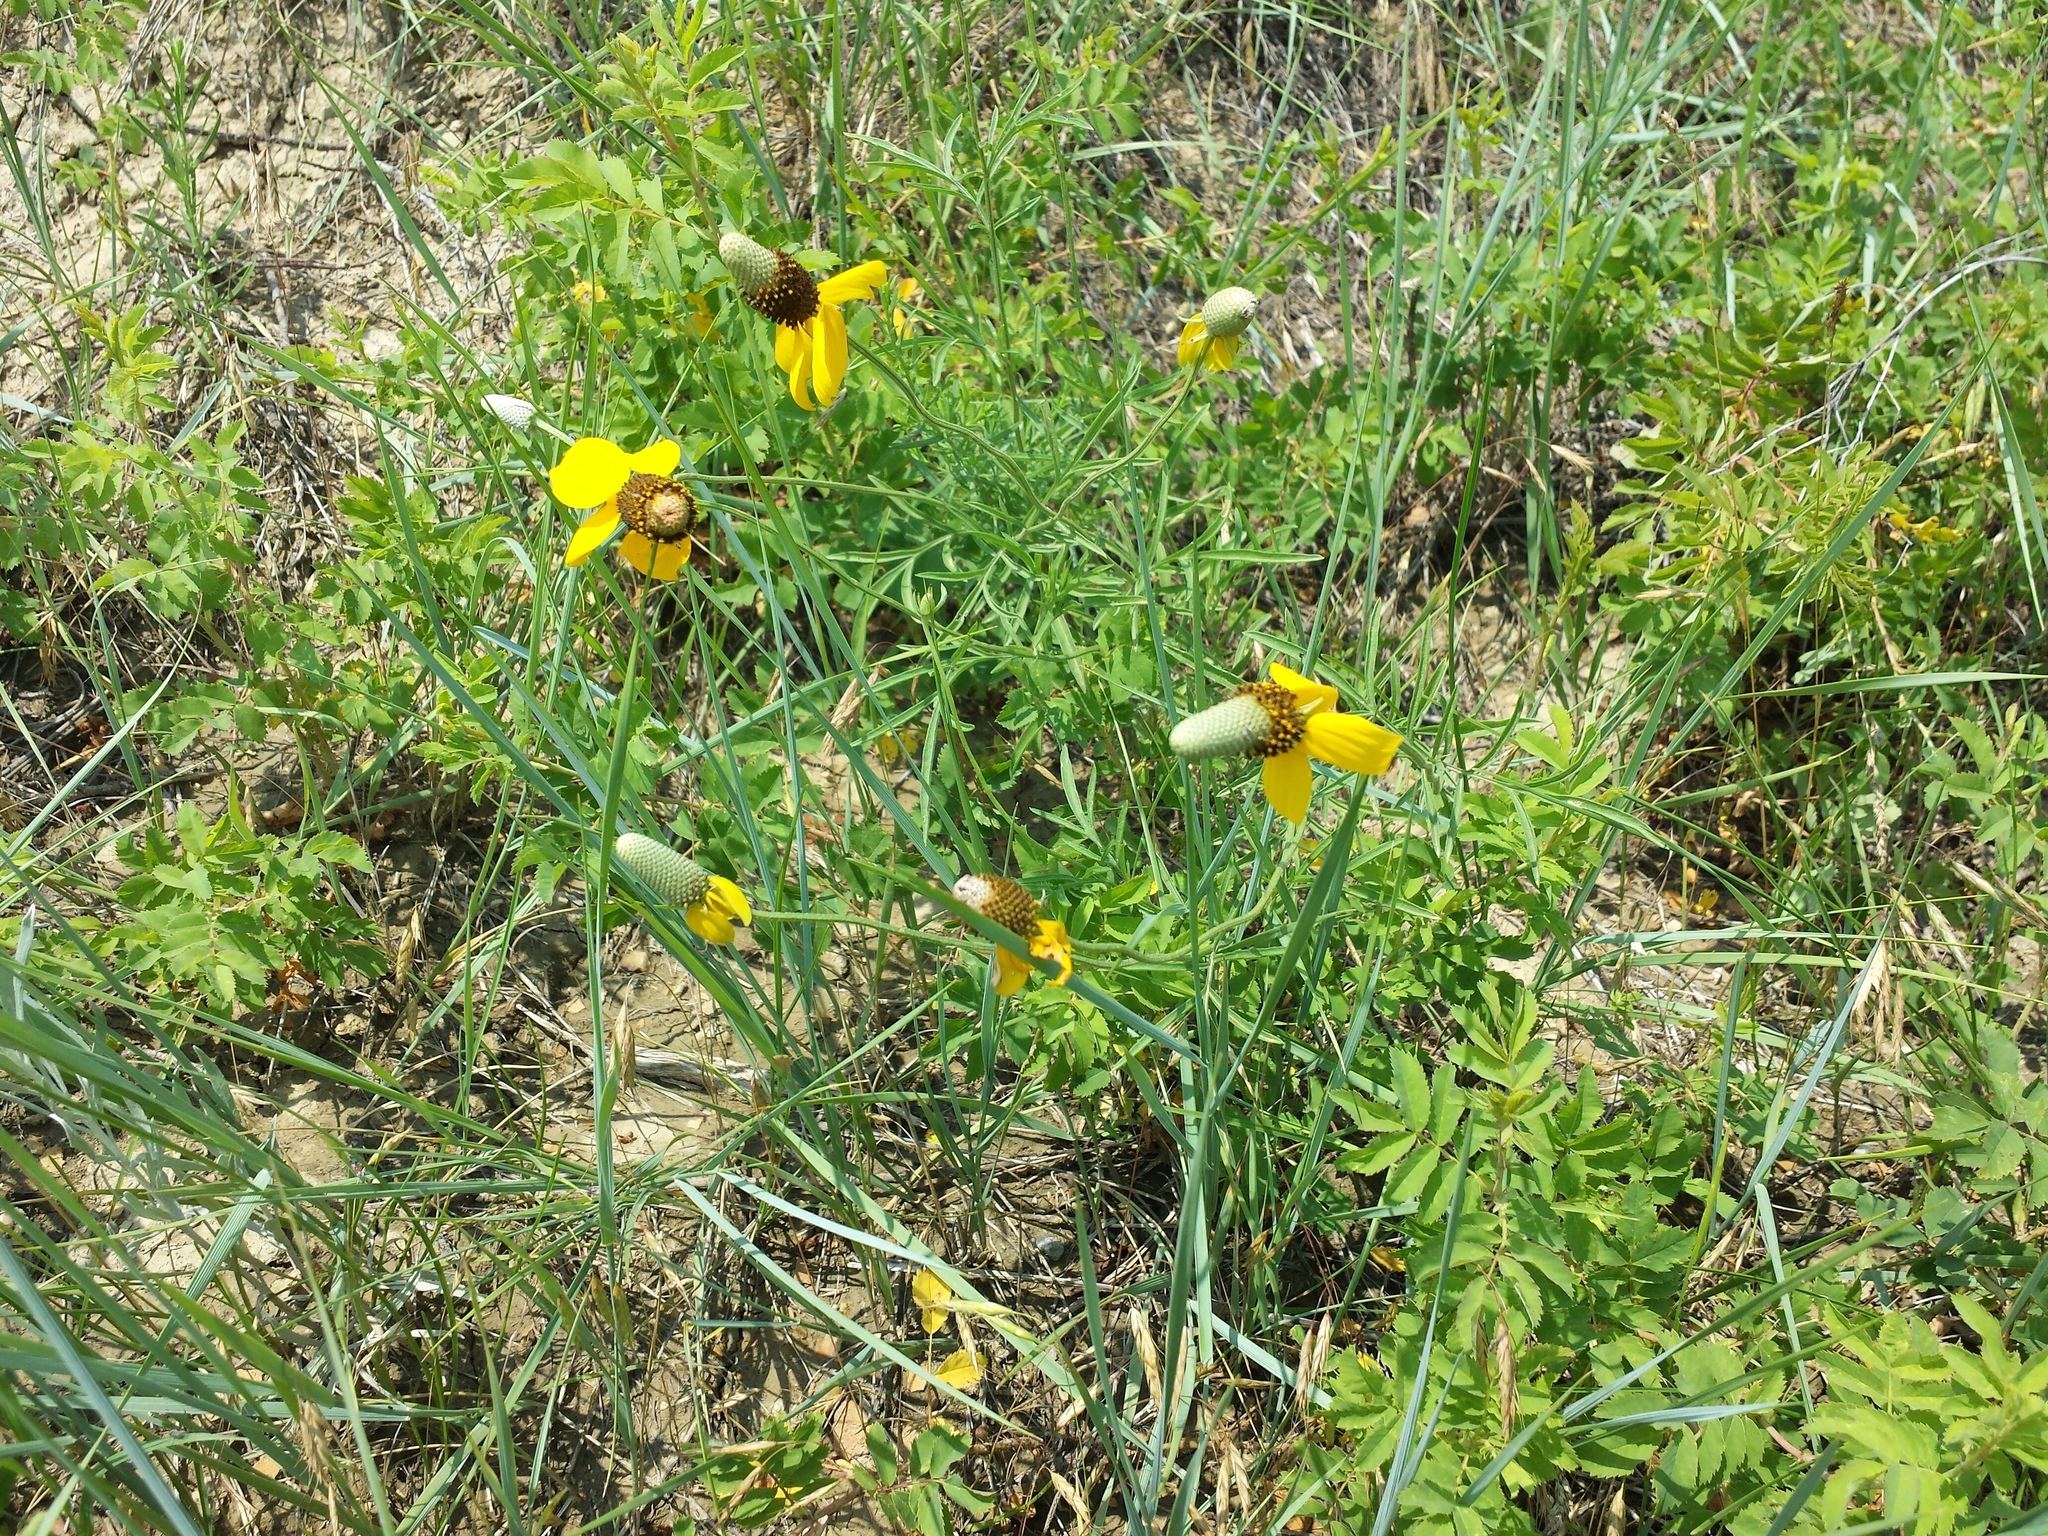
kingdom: Plantae
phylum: Tracheophyta
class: Magnoliopsida
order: Asterales
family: Asteraceae
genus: Ratibida
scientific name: Ratibida columnifera
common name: Prairie coneflower
